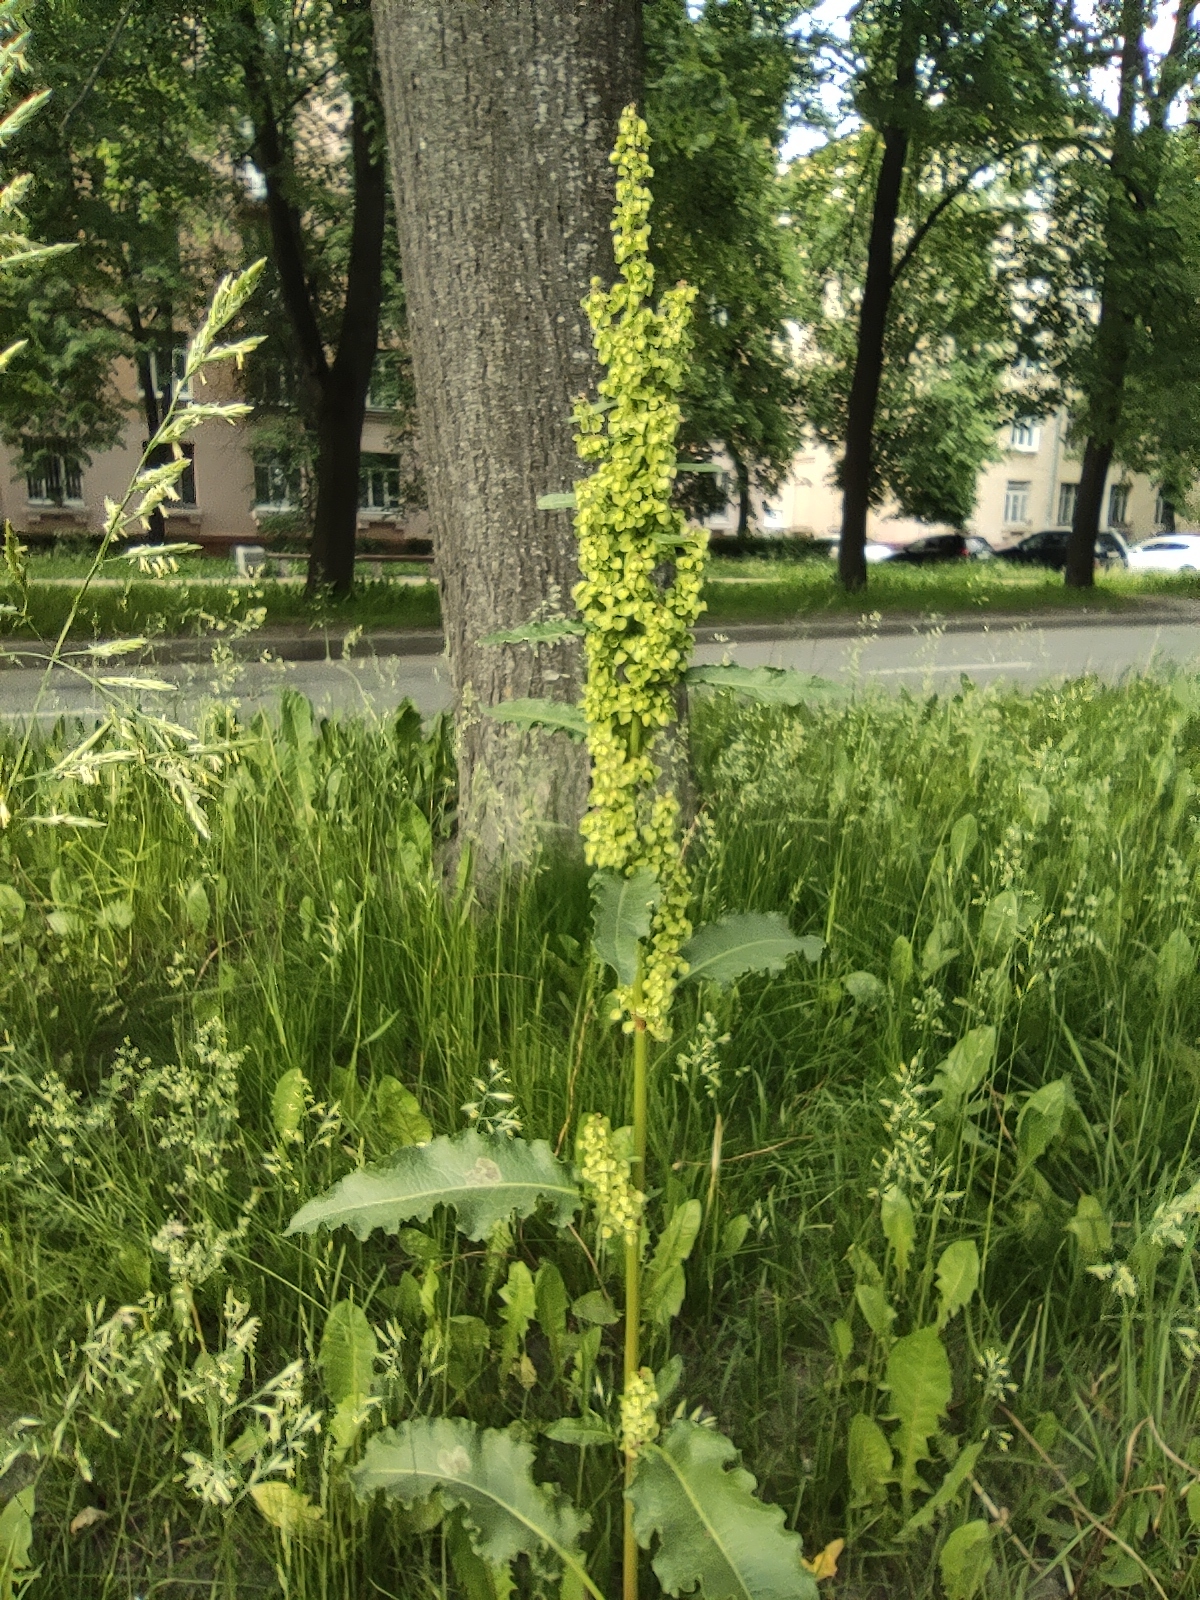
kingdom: Plantae
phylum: Tracheophyta
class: Magnoliopsida
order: Caryophyllales
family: Polygonaceae
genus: Rumex
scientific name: Rumex longifolius
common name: Dooryard dock
